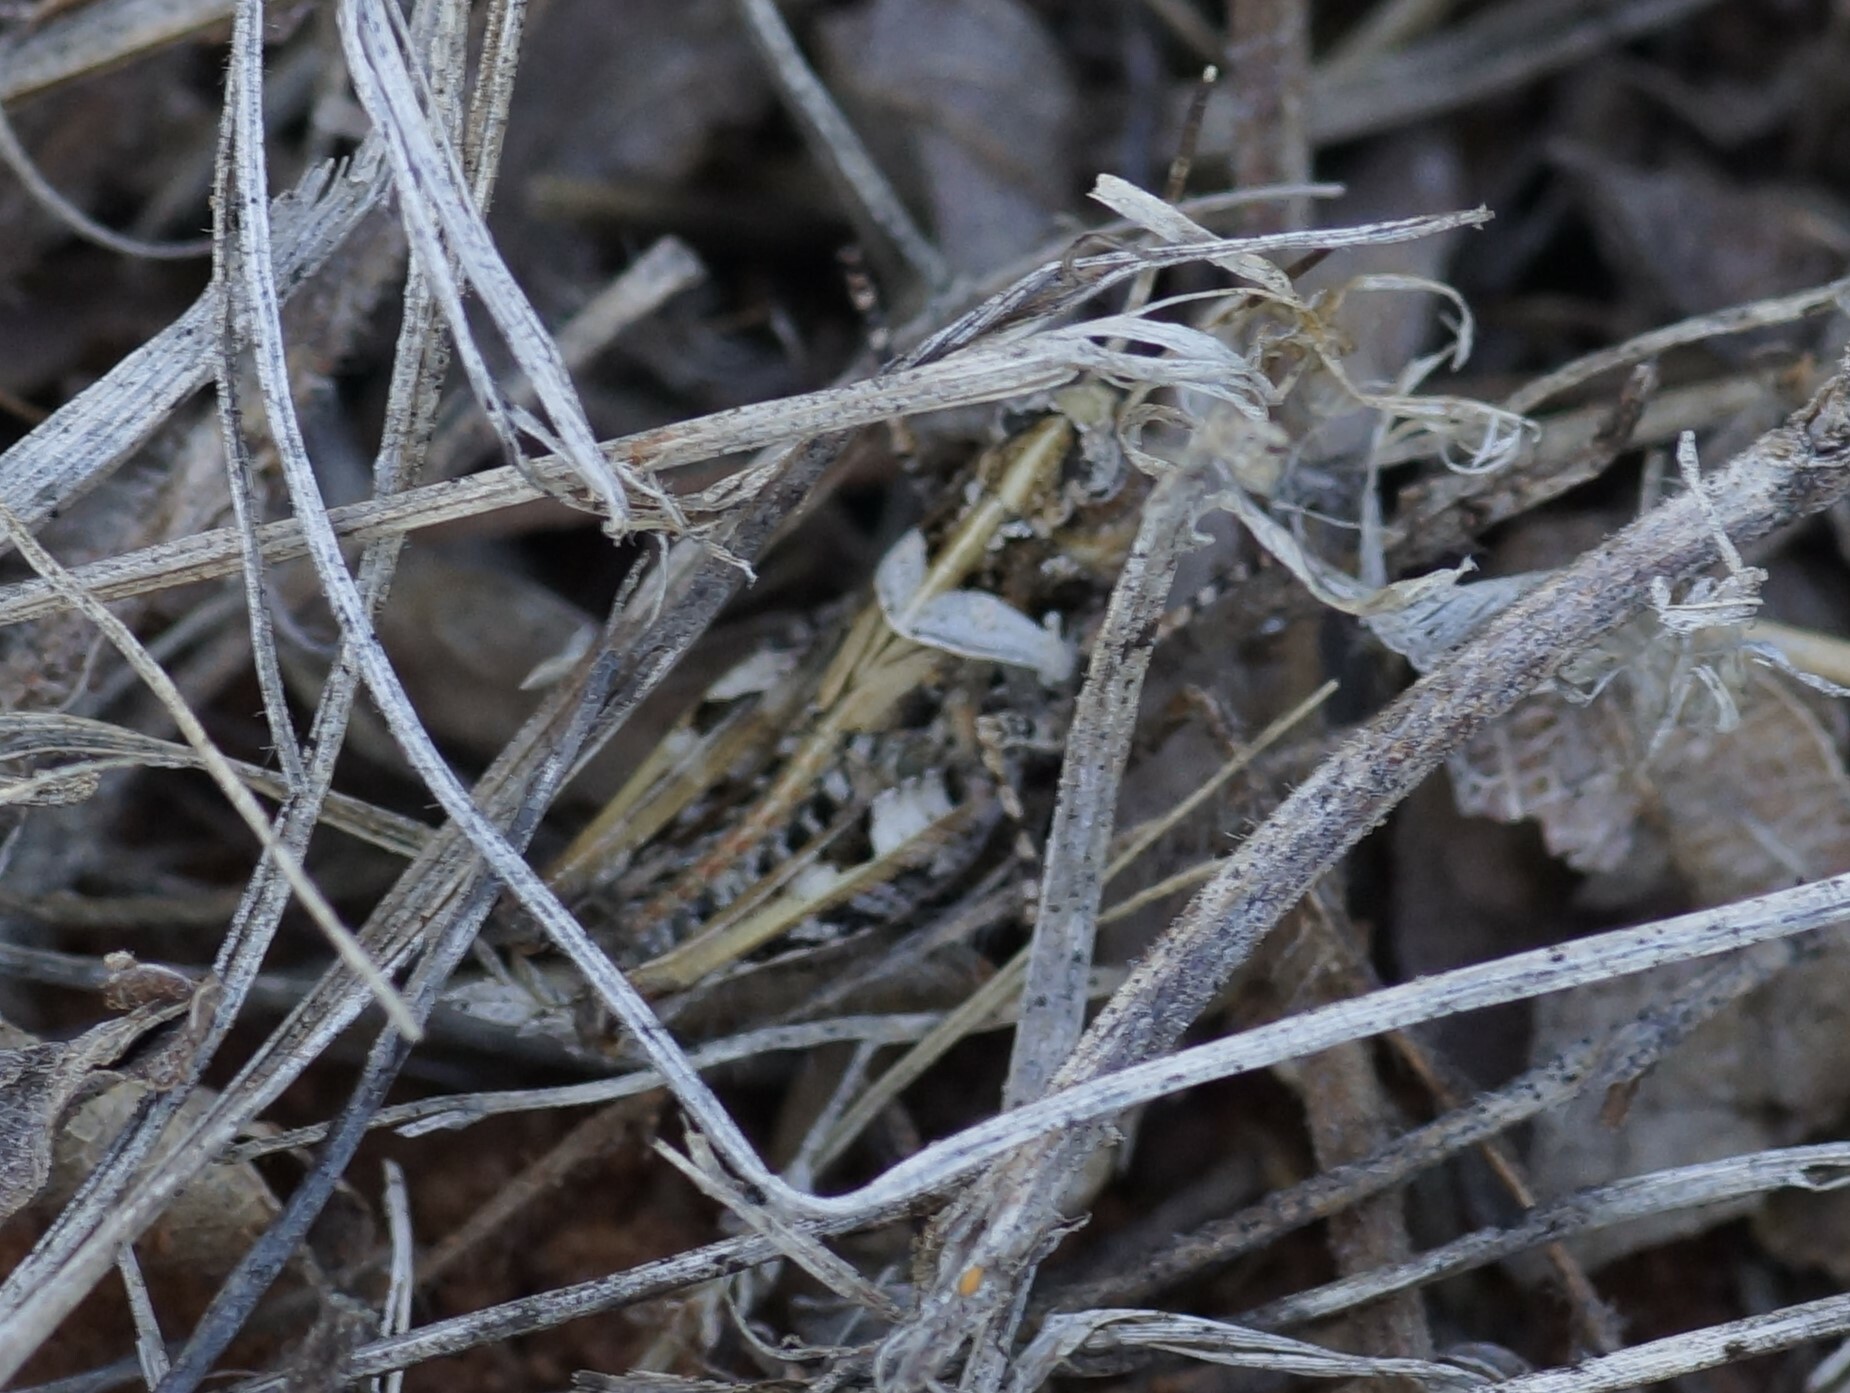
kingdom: Animalia
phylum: Arthropoda
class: Insecta
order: Orthoptera
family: Acrididae
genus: Heteropternis
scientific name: Heteropternis obscurella
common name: Long-legged bandwing
